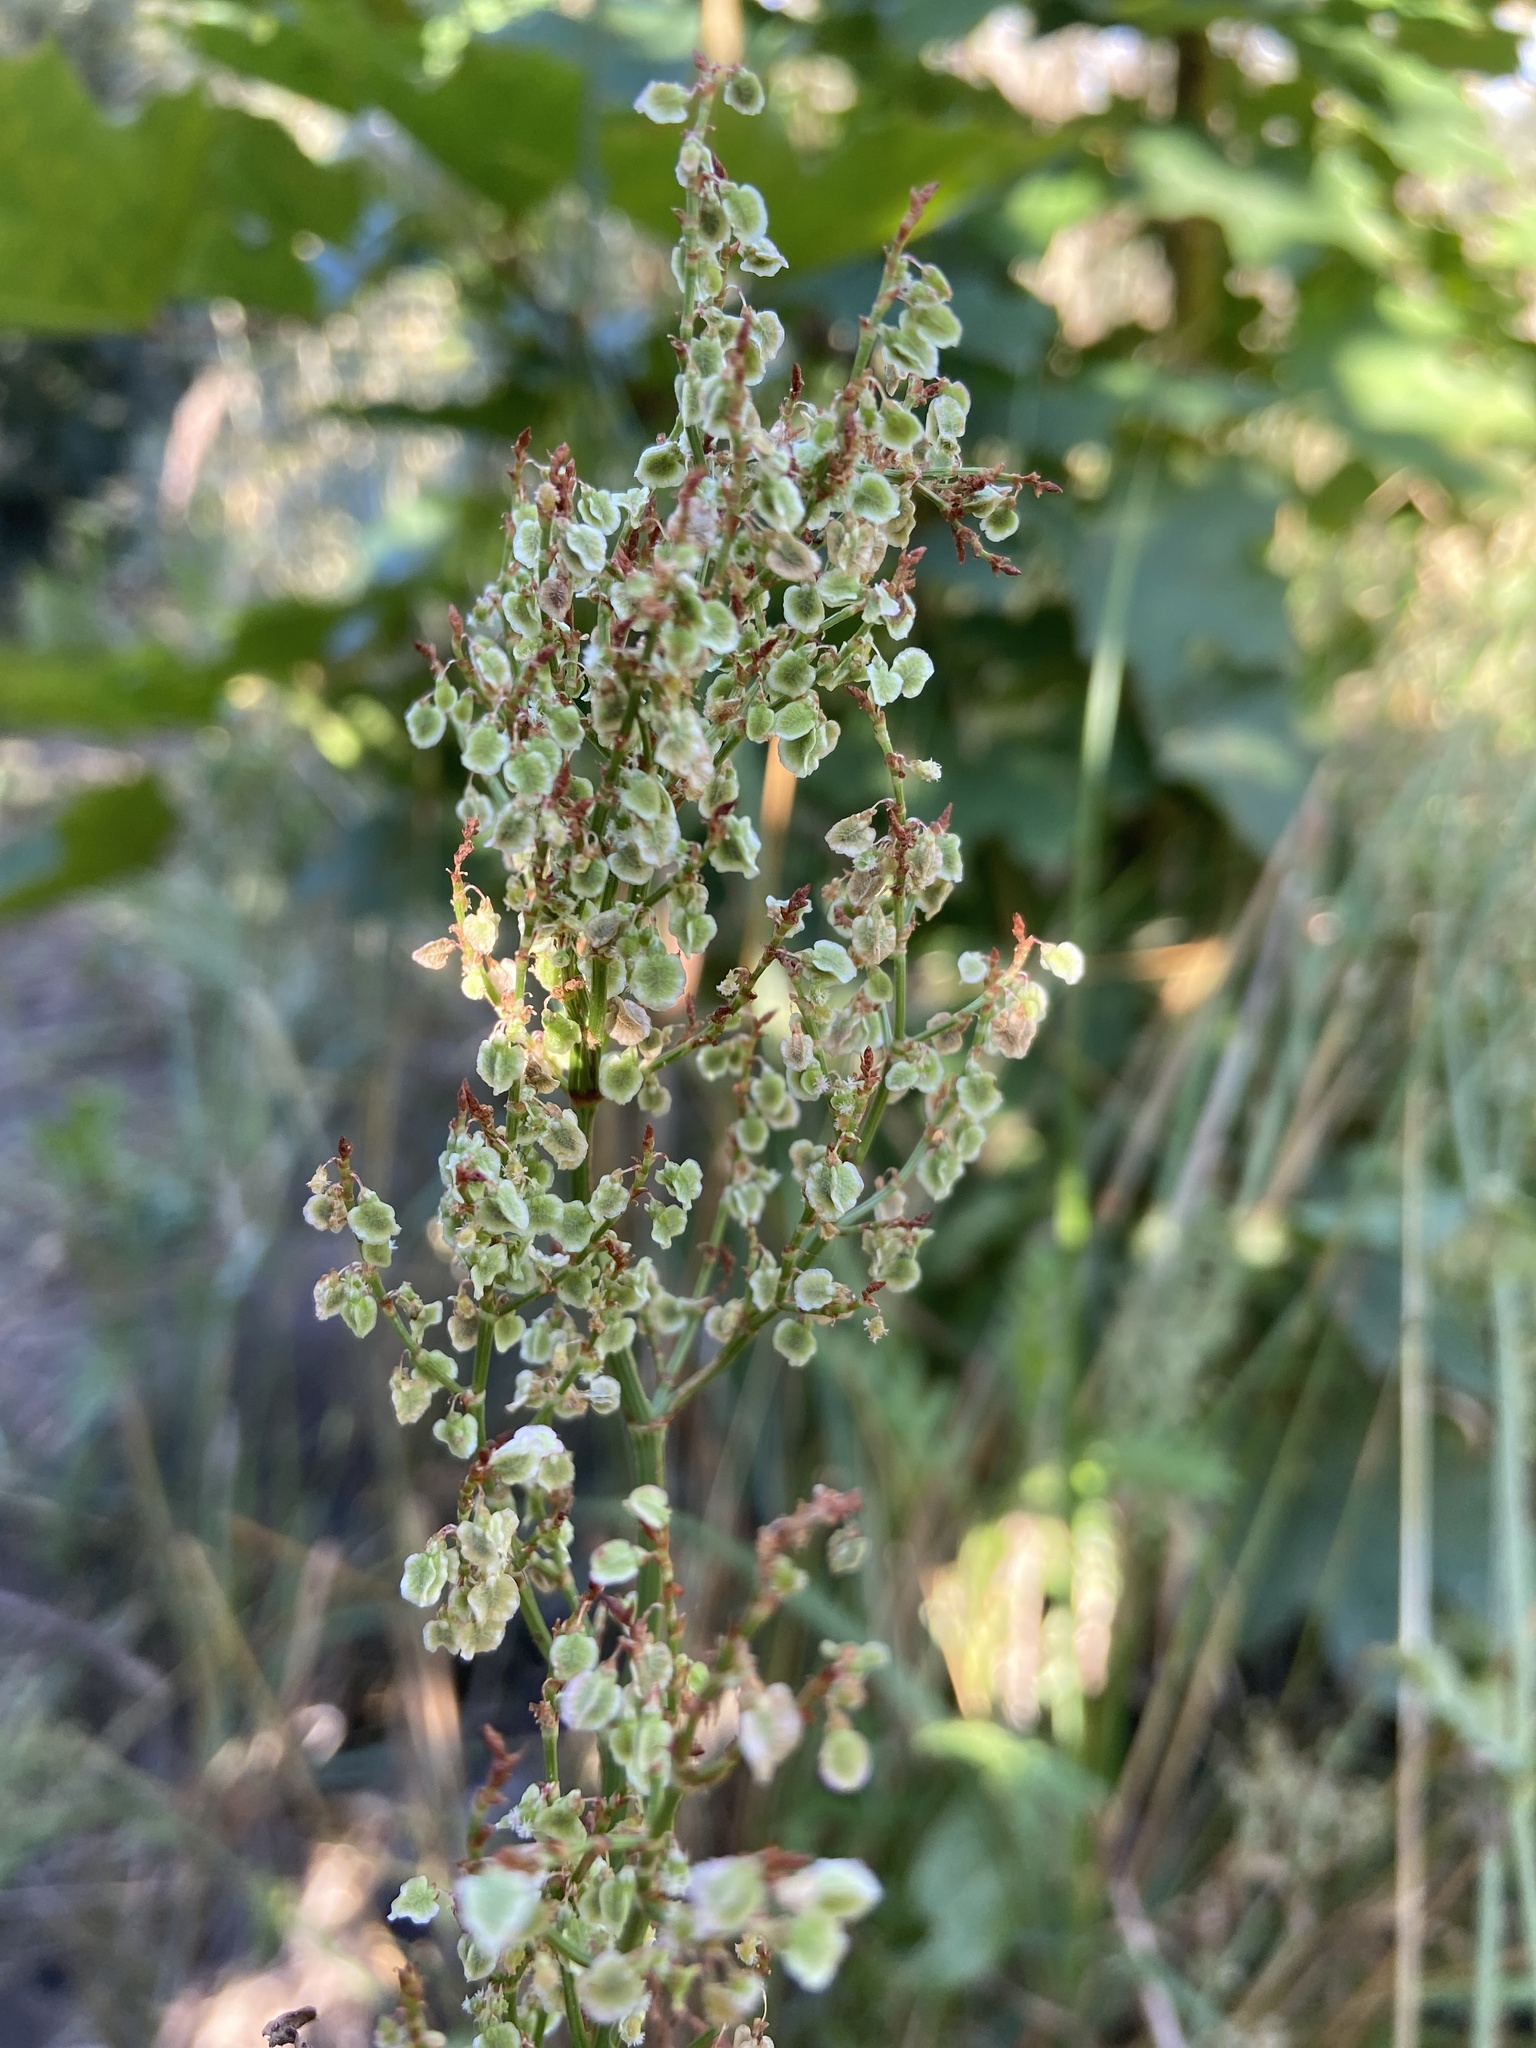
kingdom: Plantae
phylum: Tracheophyta
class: Magnoliopsida
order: Caryophyllales
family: Polygonaceae
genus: Rumex
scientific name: Rumex crispus
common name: Curled dock
